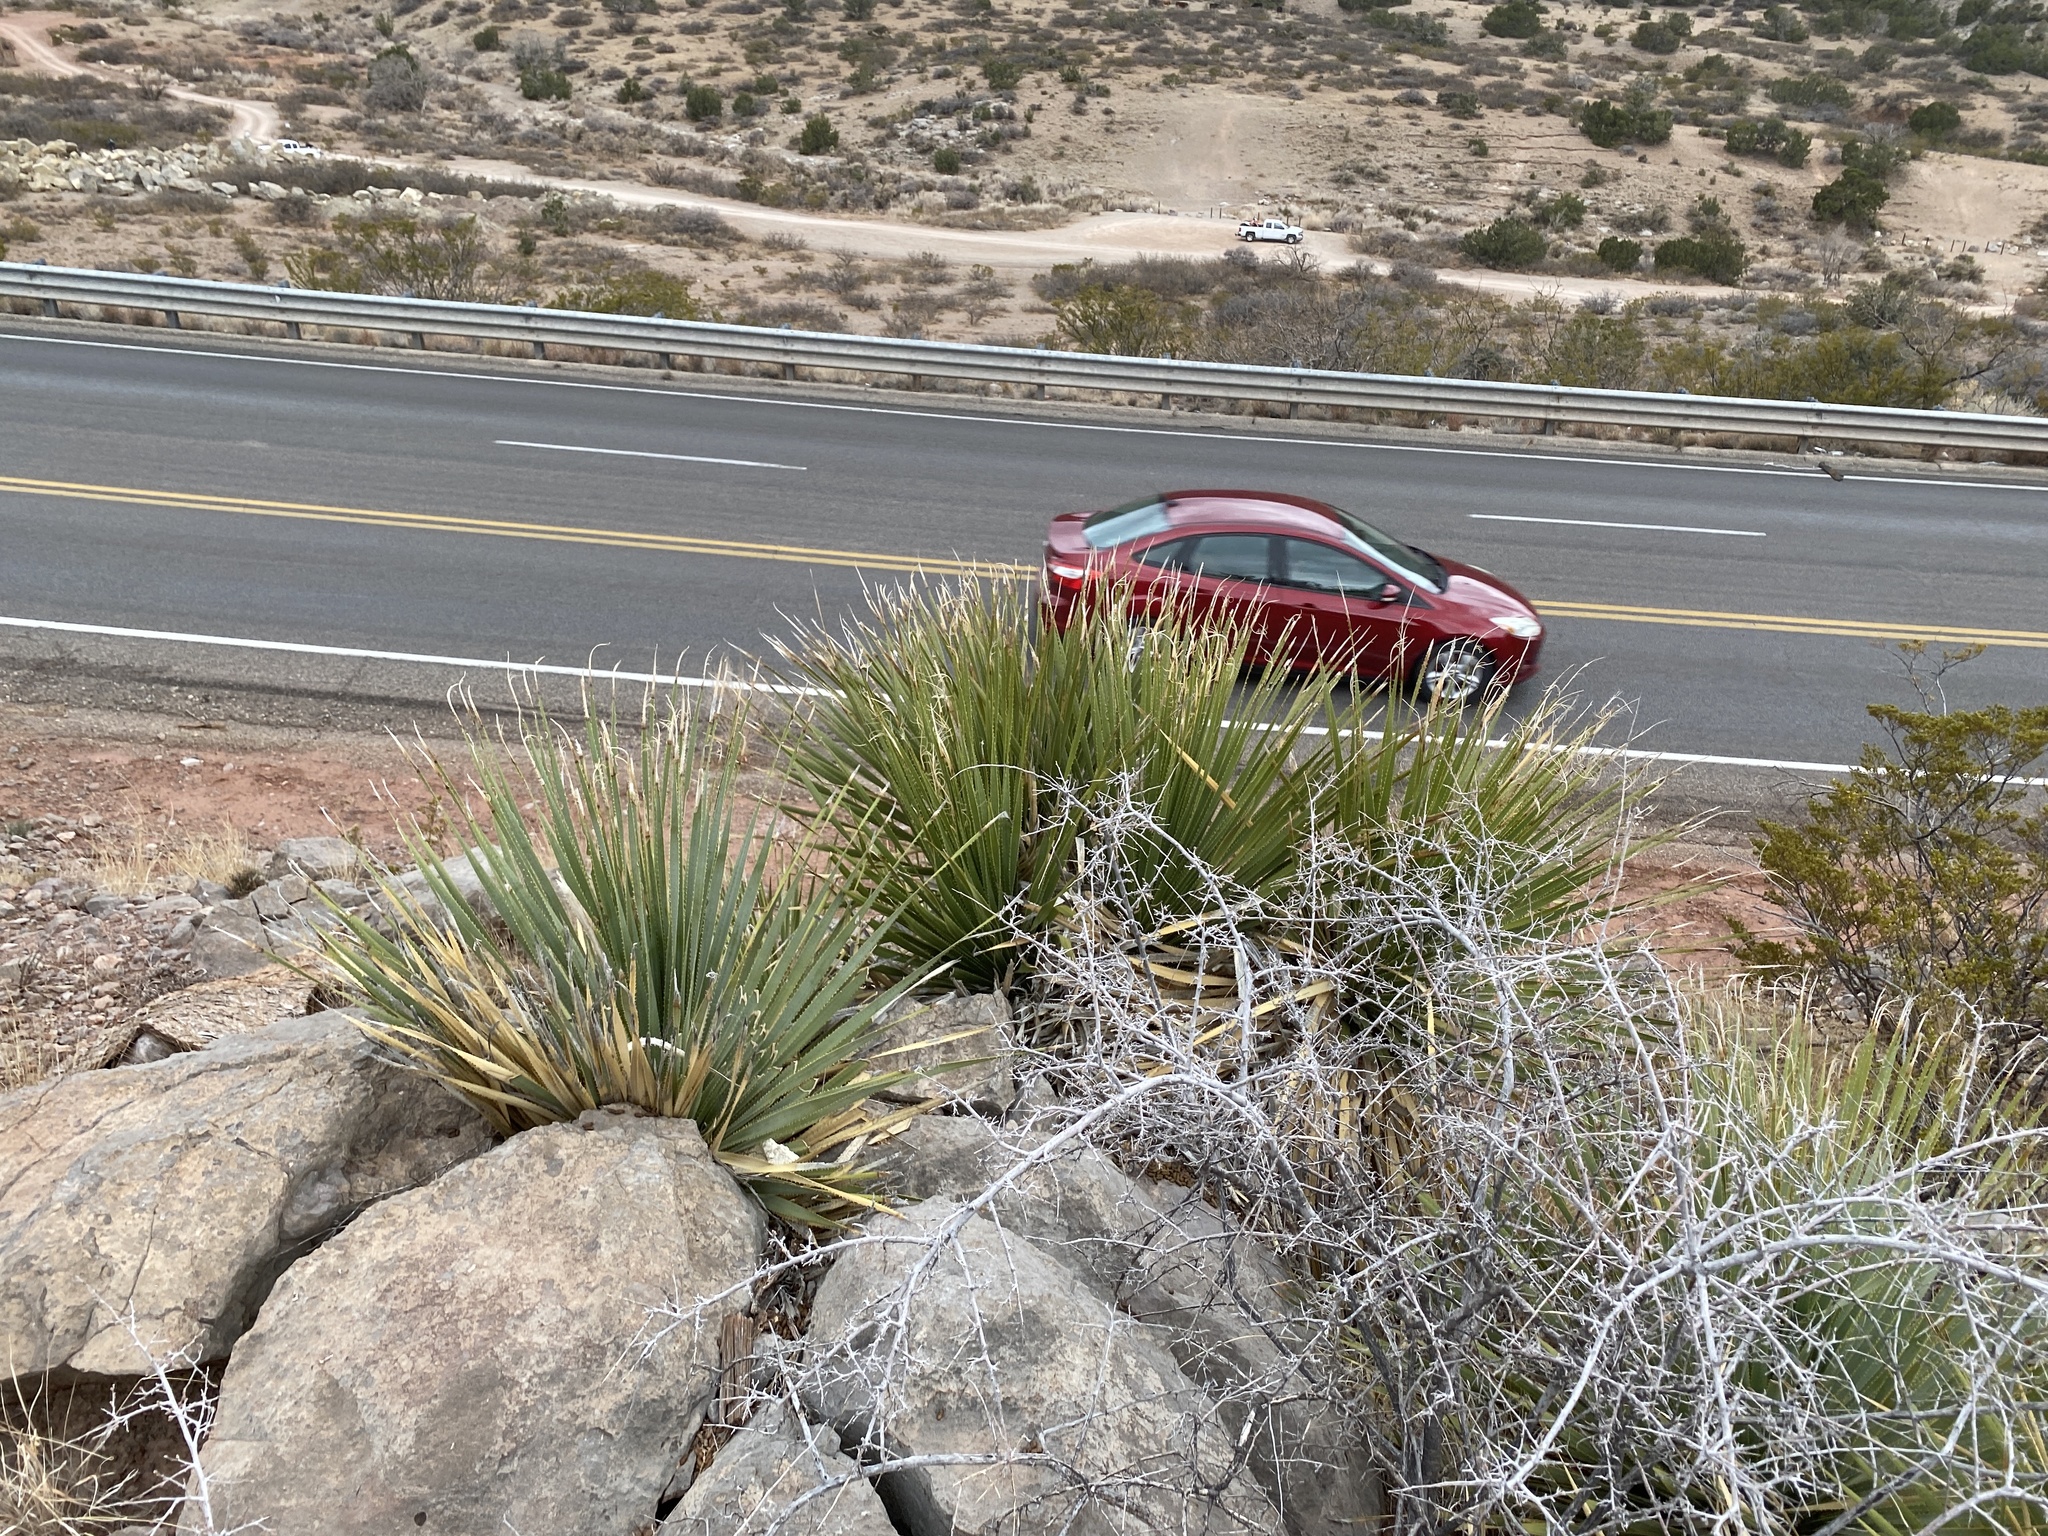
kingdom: Plantae
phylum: Tracheophyta
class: Liliopsida
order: Asparagales
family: Asparagaceae
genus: Dasylirion
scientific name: Dasylirion wheeleri
